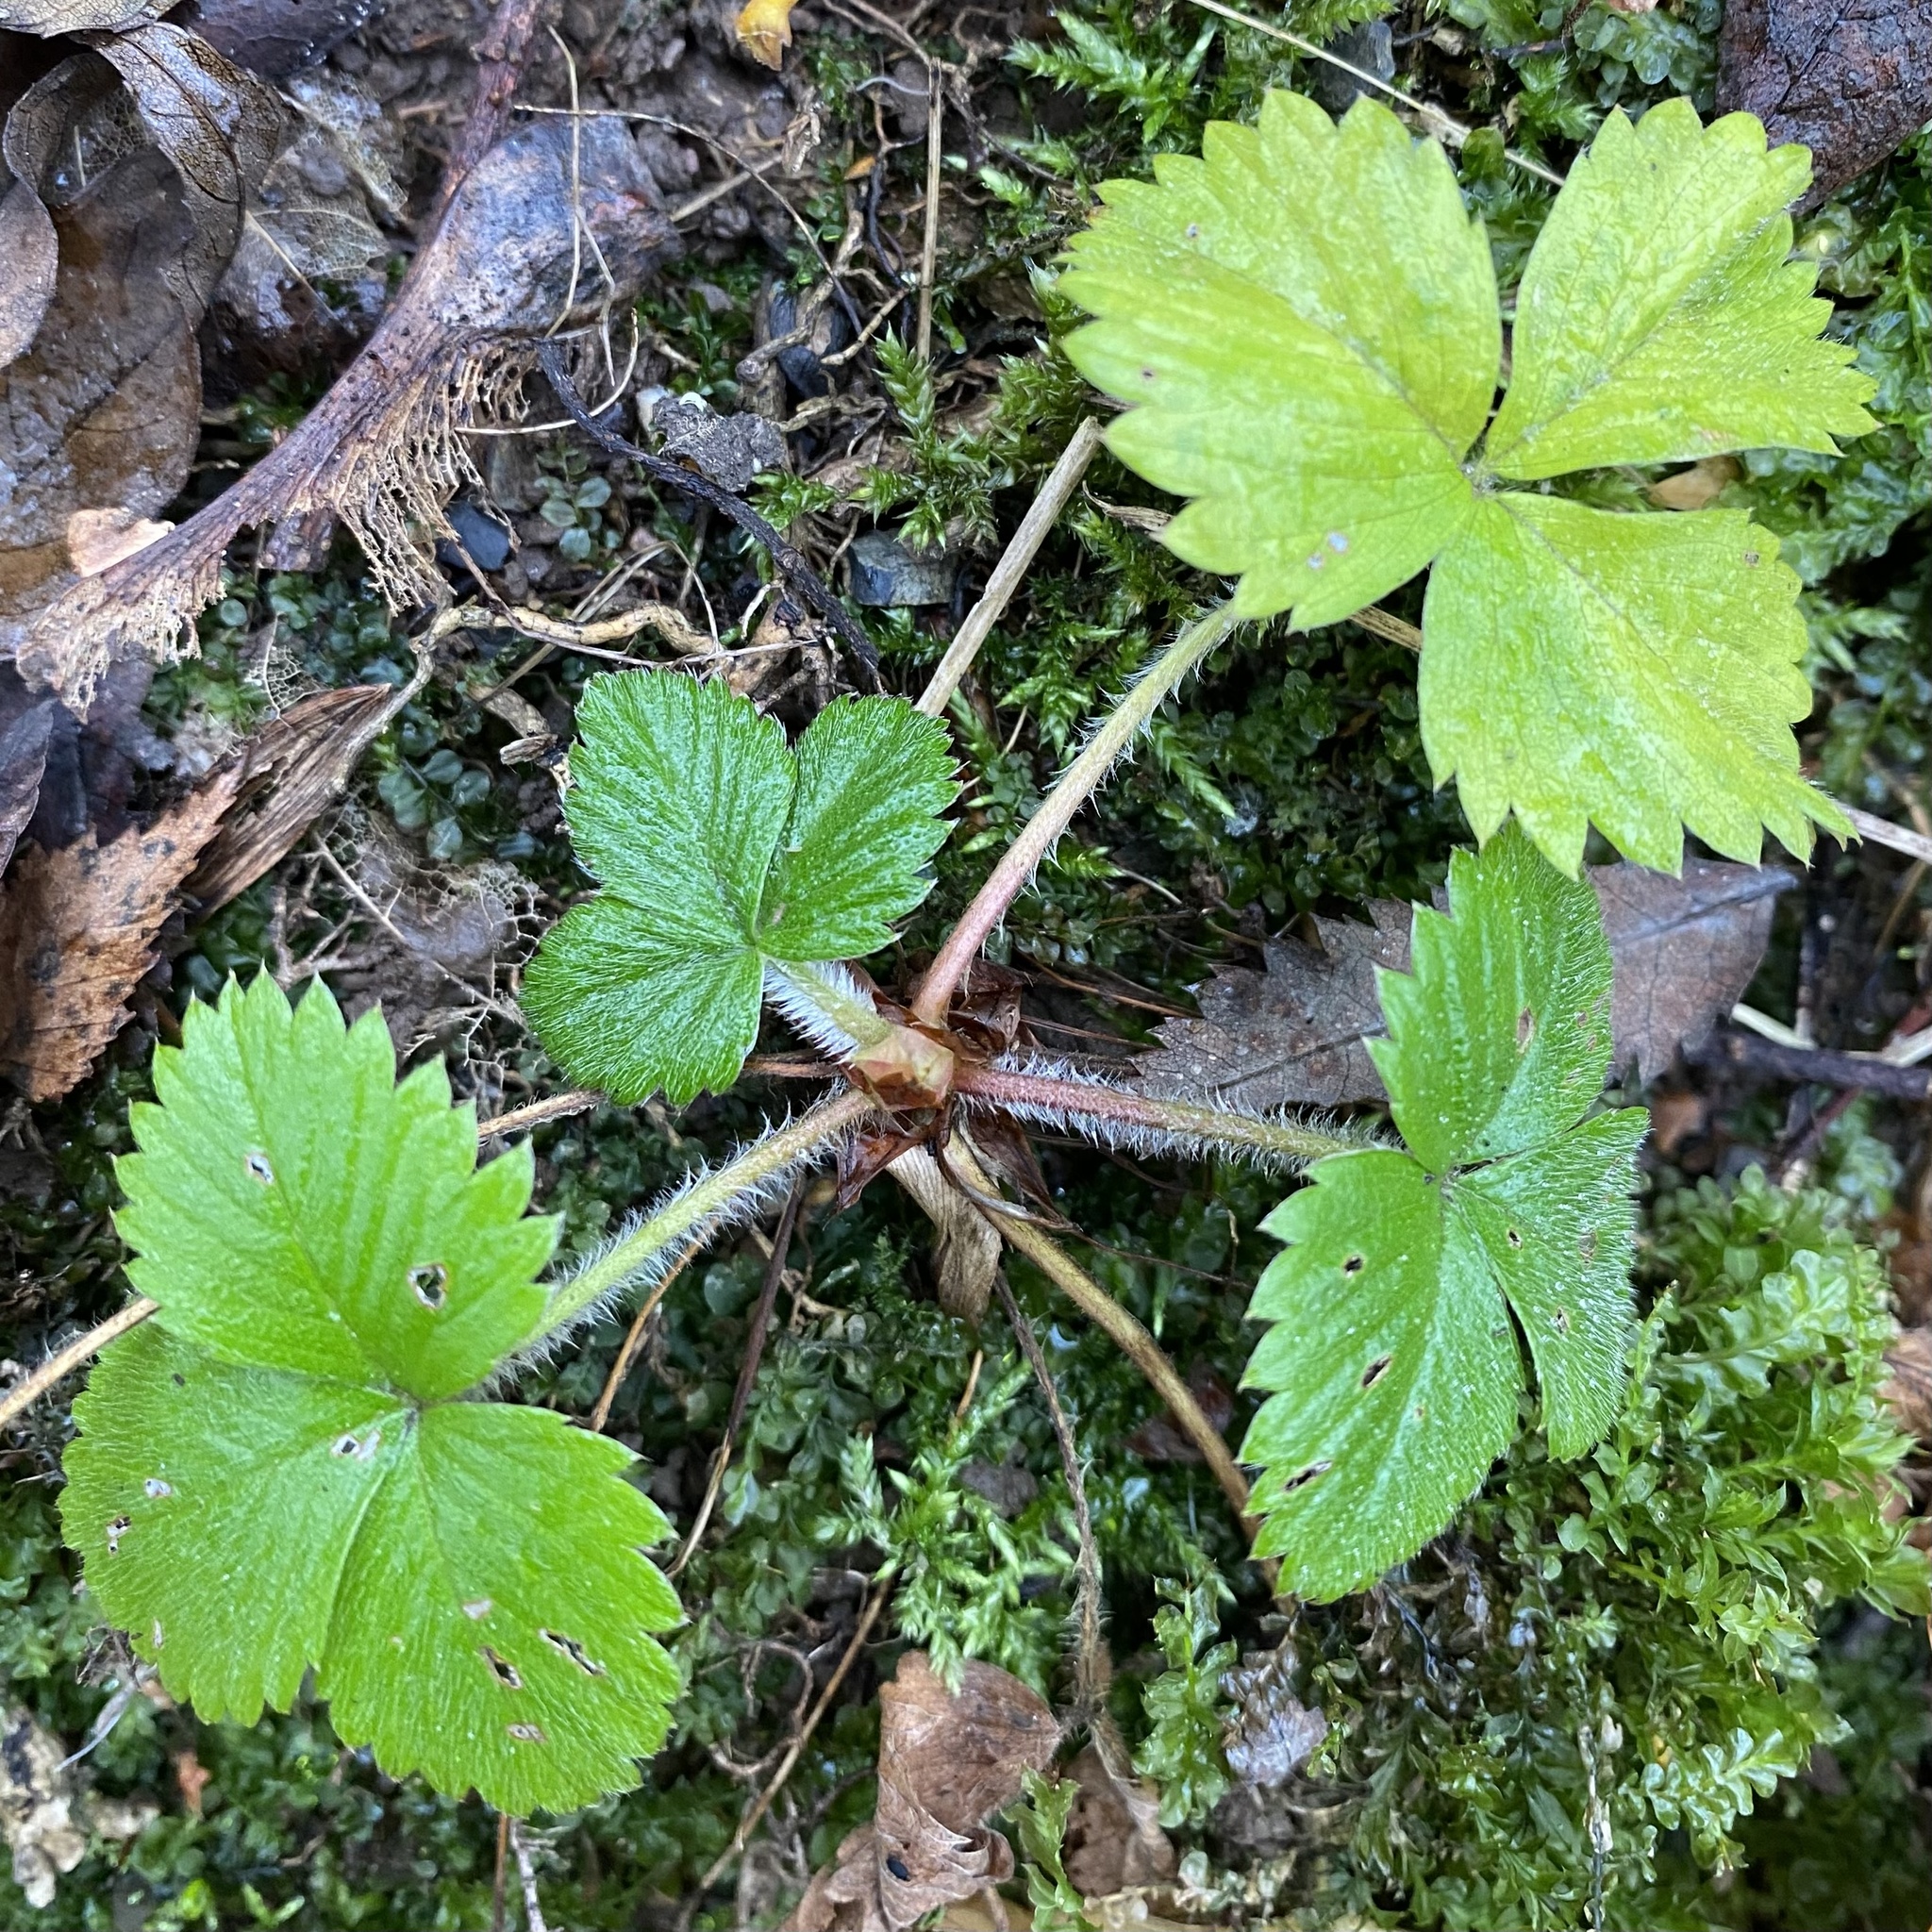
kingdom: Plantae
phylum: Tracheophyta
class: Magnoliopsida
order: Rosales
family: Rosaceae
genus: Fragaria
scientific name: Fragaria vesca
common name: Wild strawberry
